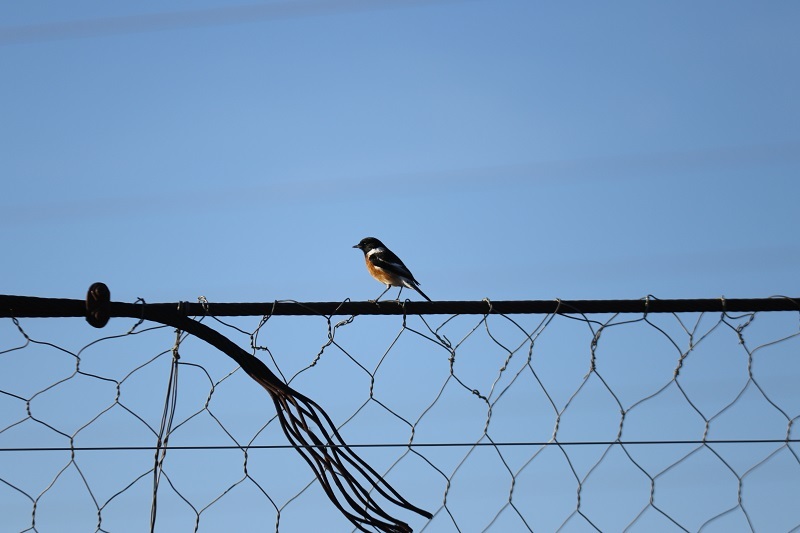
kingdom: Animalia
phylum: Chordata
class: Aves
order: Passeriformes
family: Muscicapidae
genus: Saxicola
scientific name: Saxicola torquatus
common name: African stonechat
